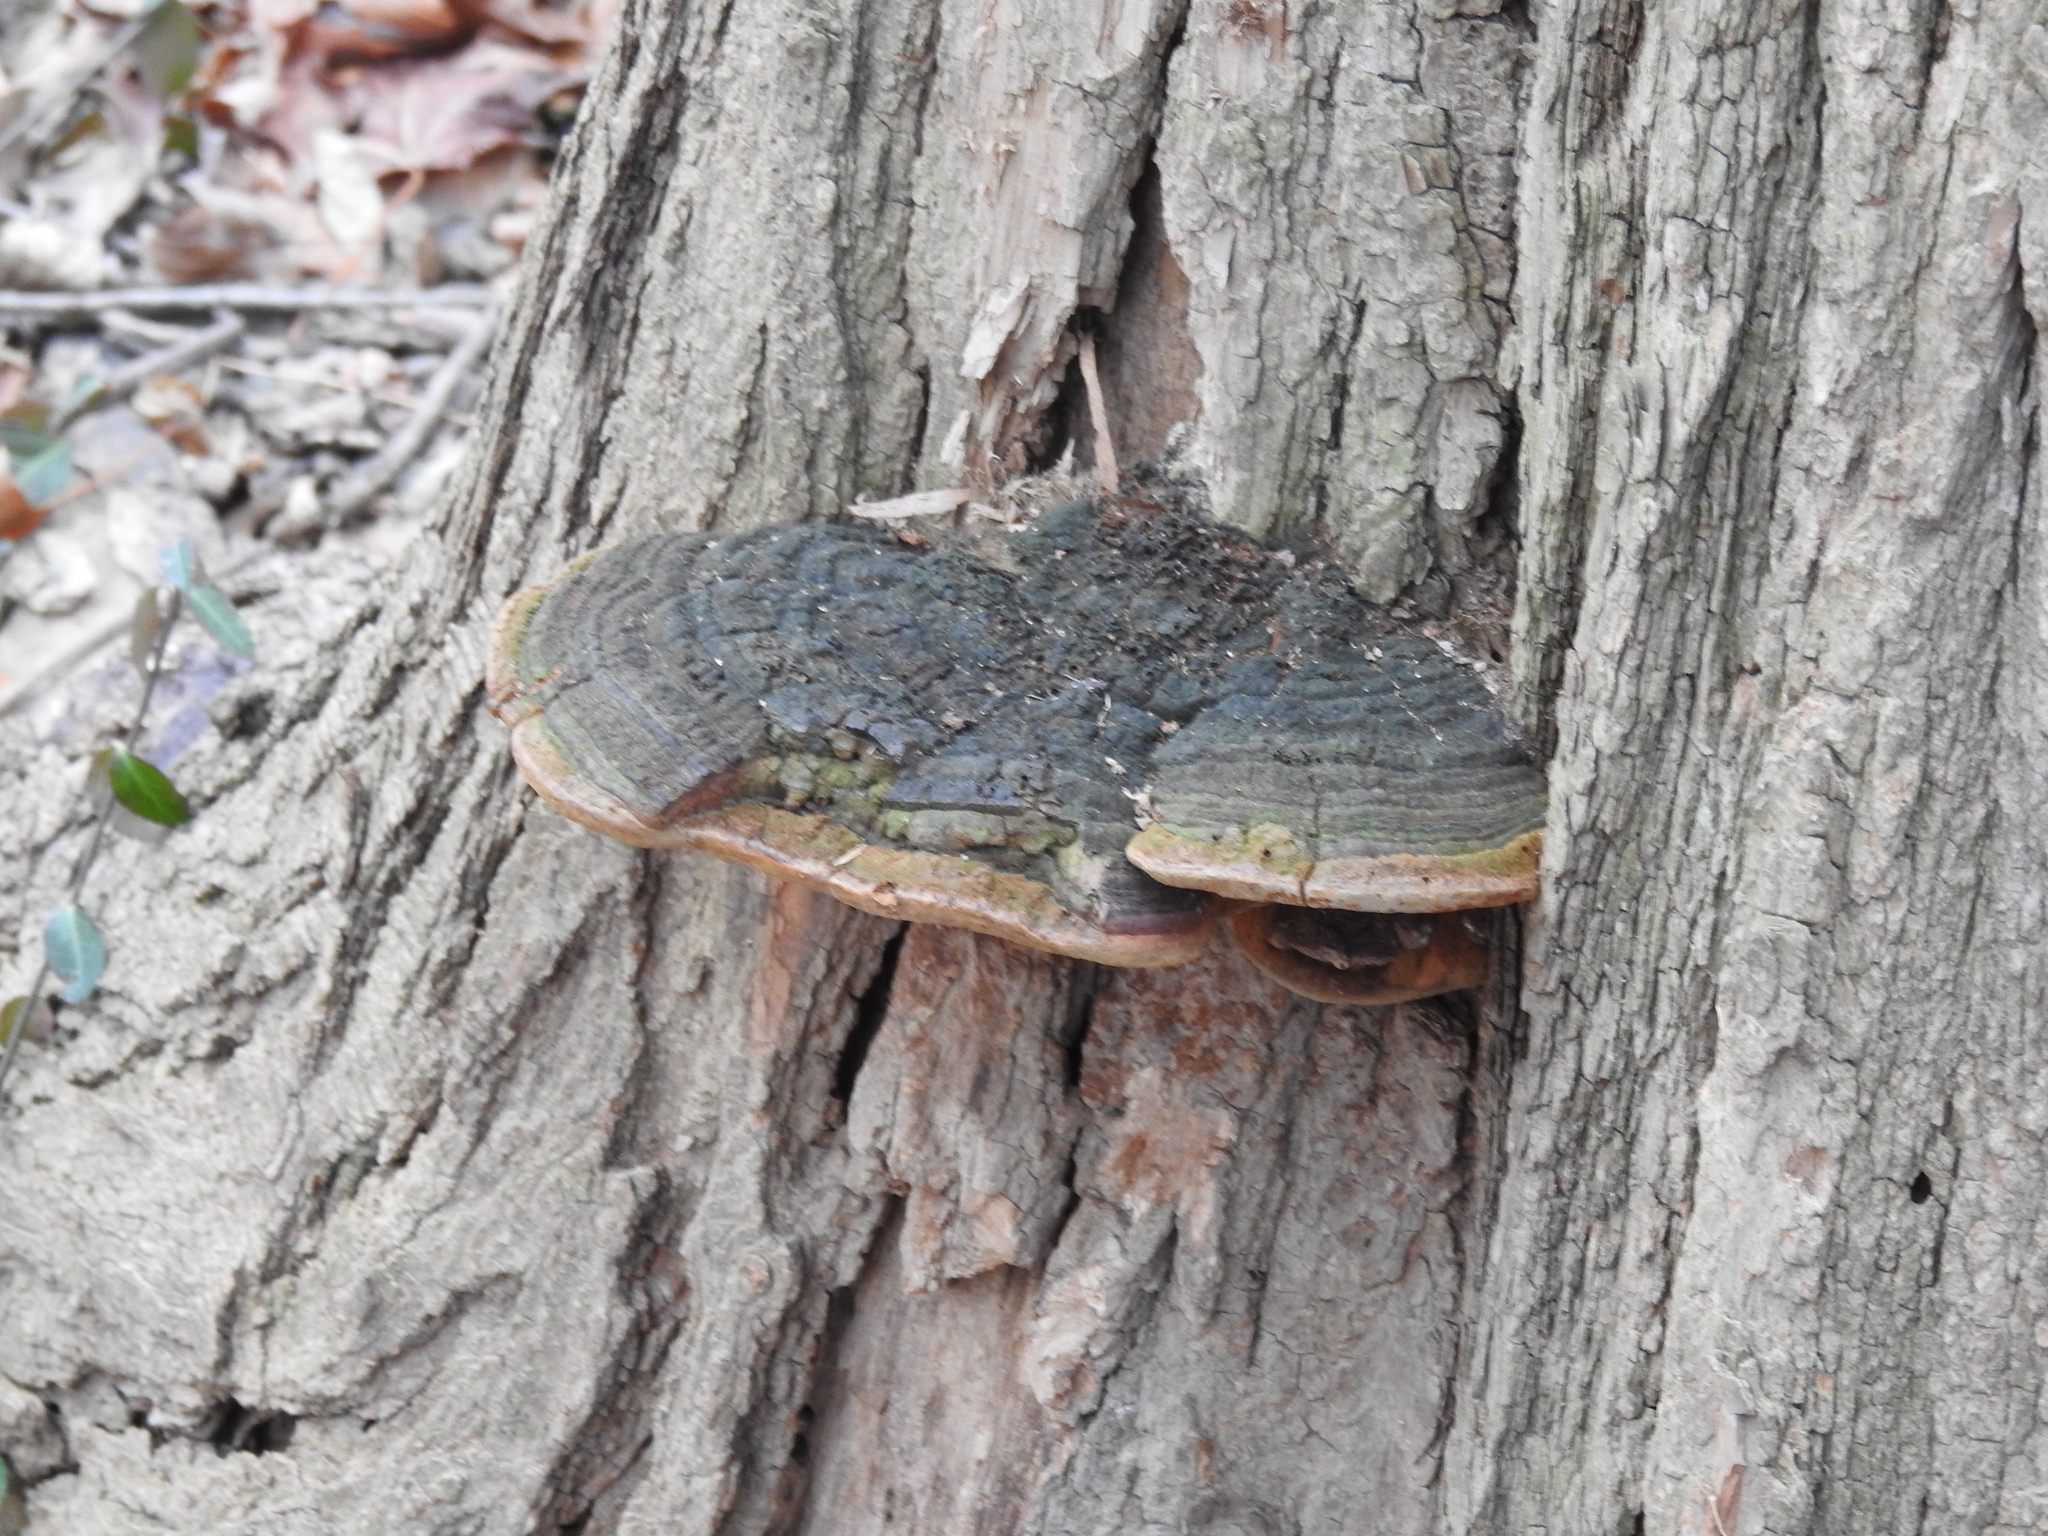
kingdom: Fungi
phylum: Basidiomycota
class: Agaricomycetes
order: Hymenochaetales
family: Hymenochaetaceae
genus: Phellinus
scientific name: Phellinus robiniae
